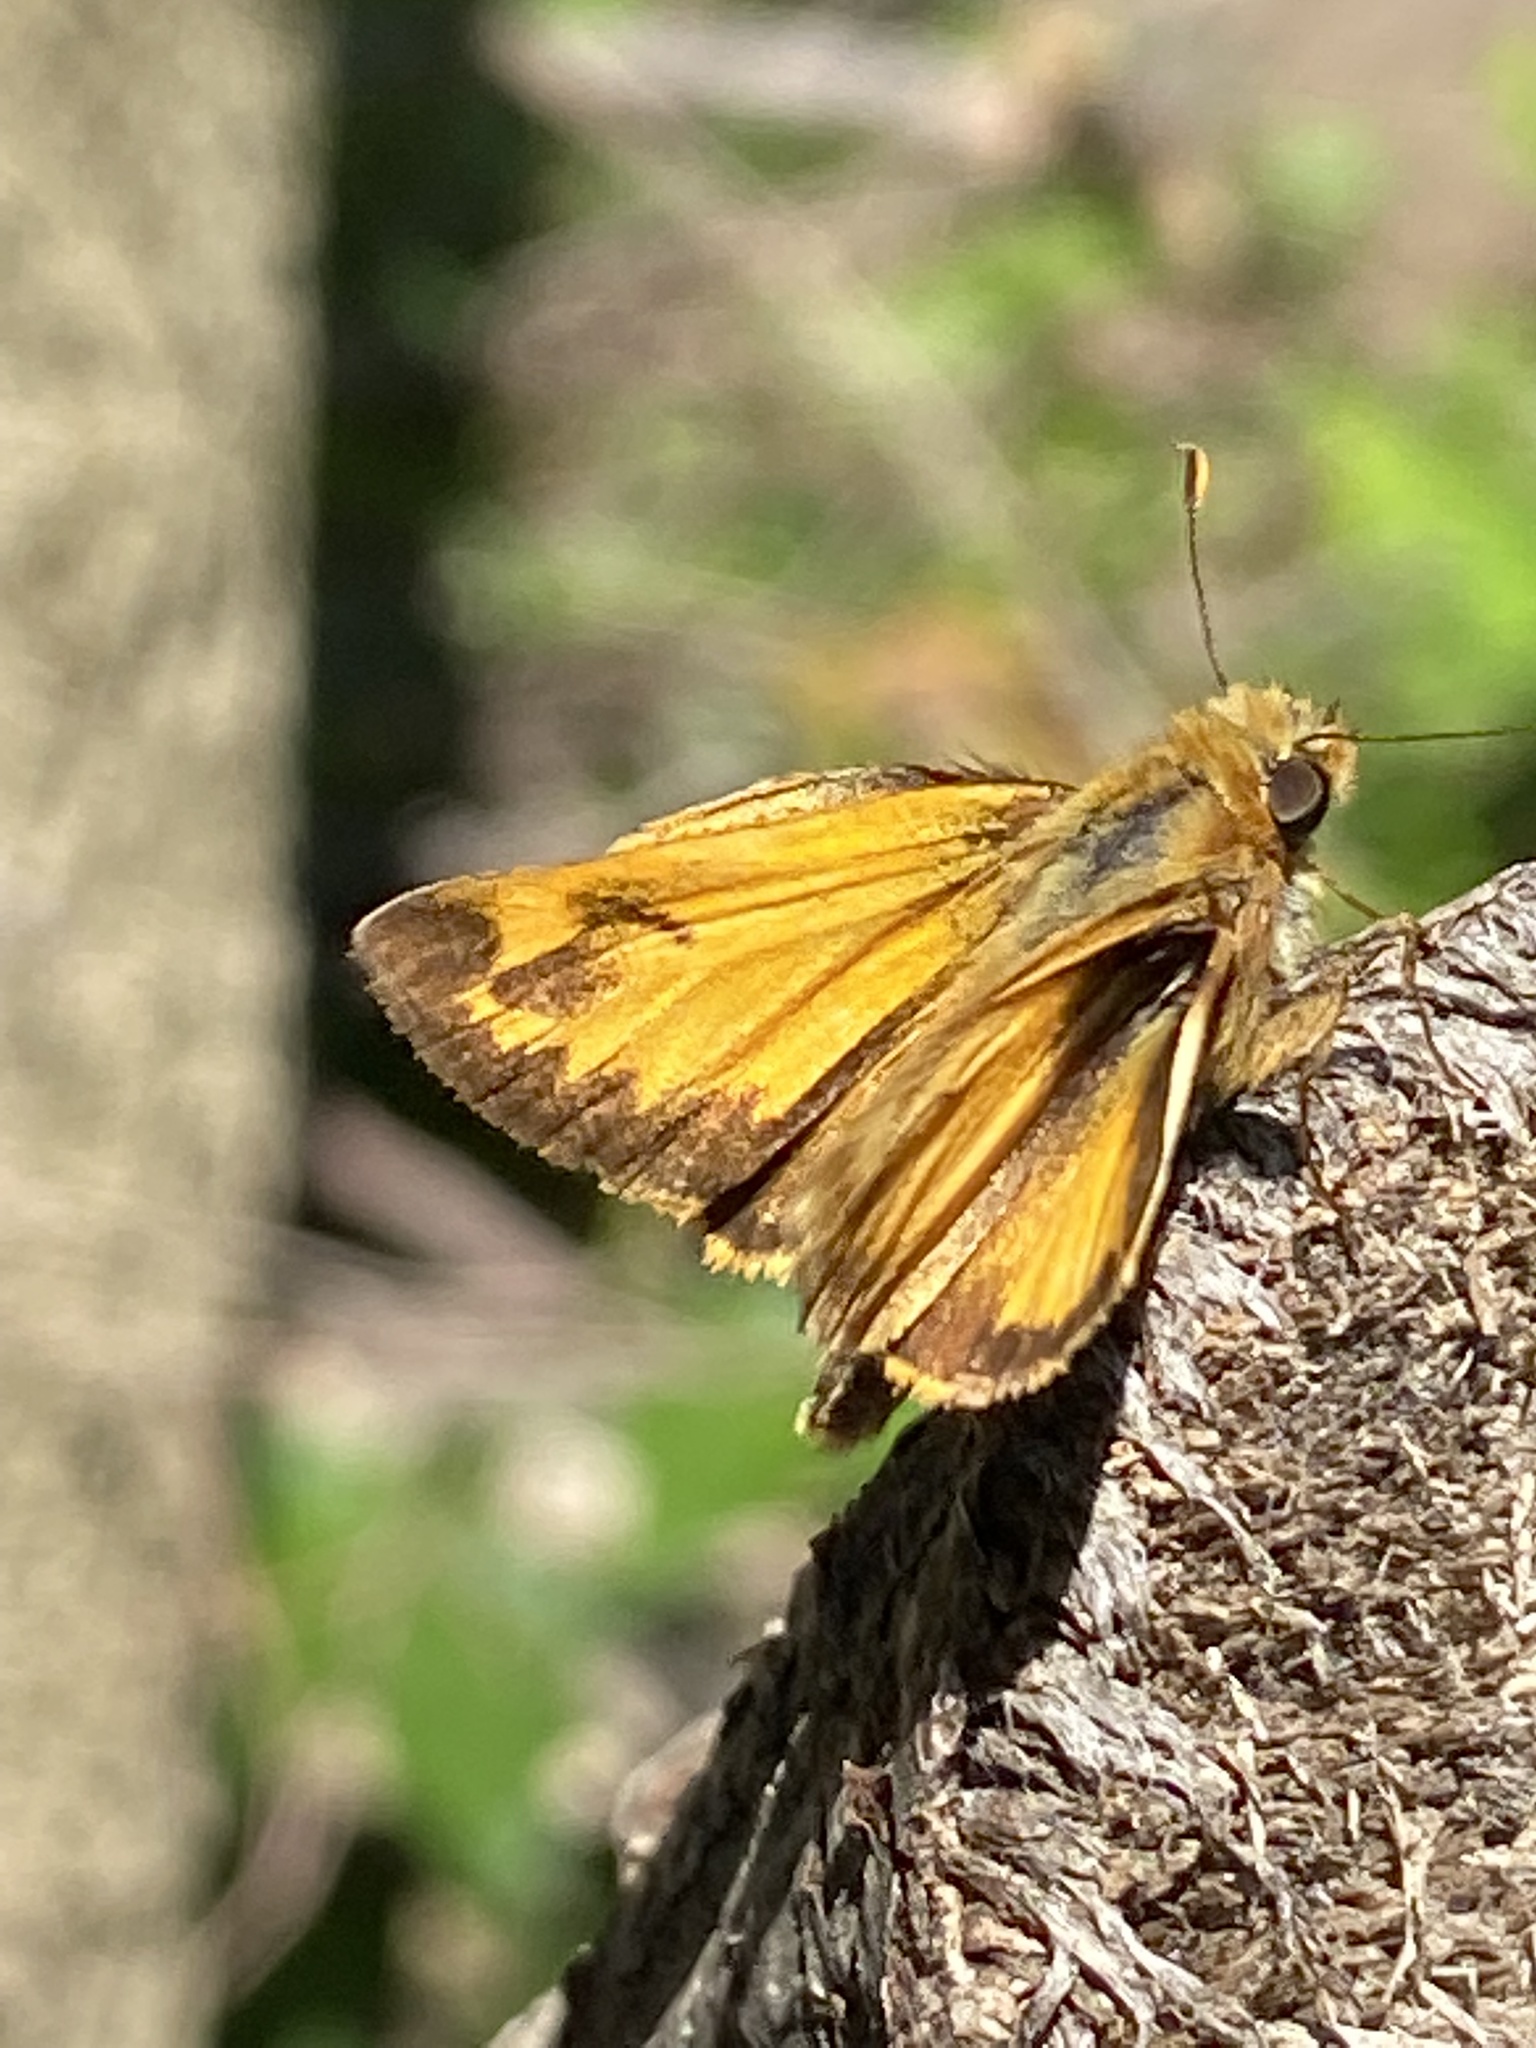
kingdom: Animalia
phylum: Arthropoda
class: Insecta
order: Lepidoptera
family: Hesperiidae
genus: Lon
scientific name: Lon zabulon
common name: Zabulon skipper
